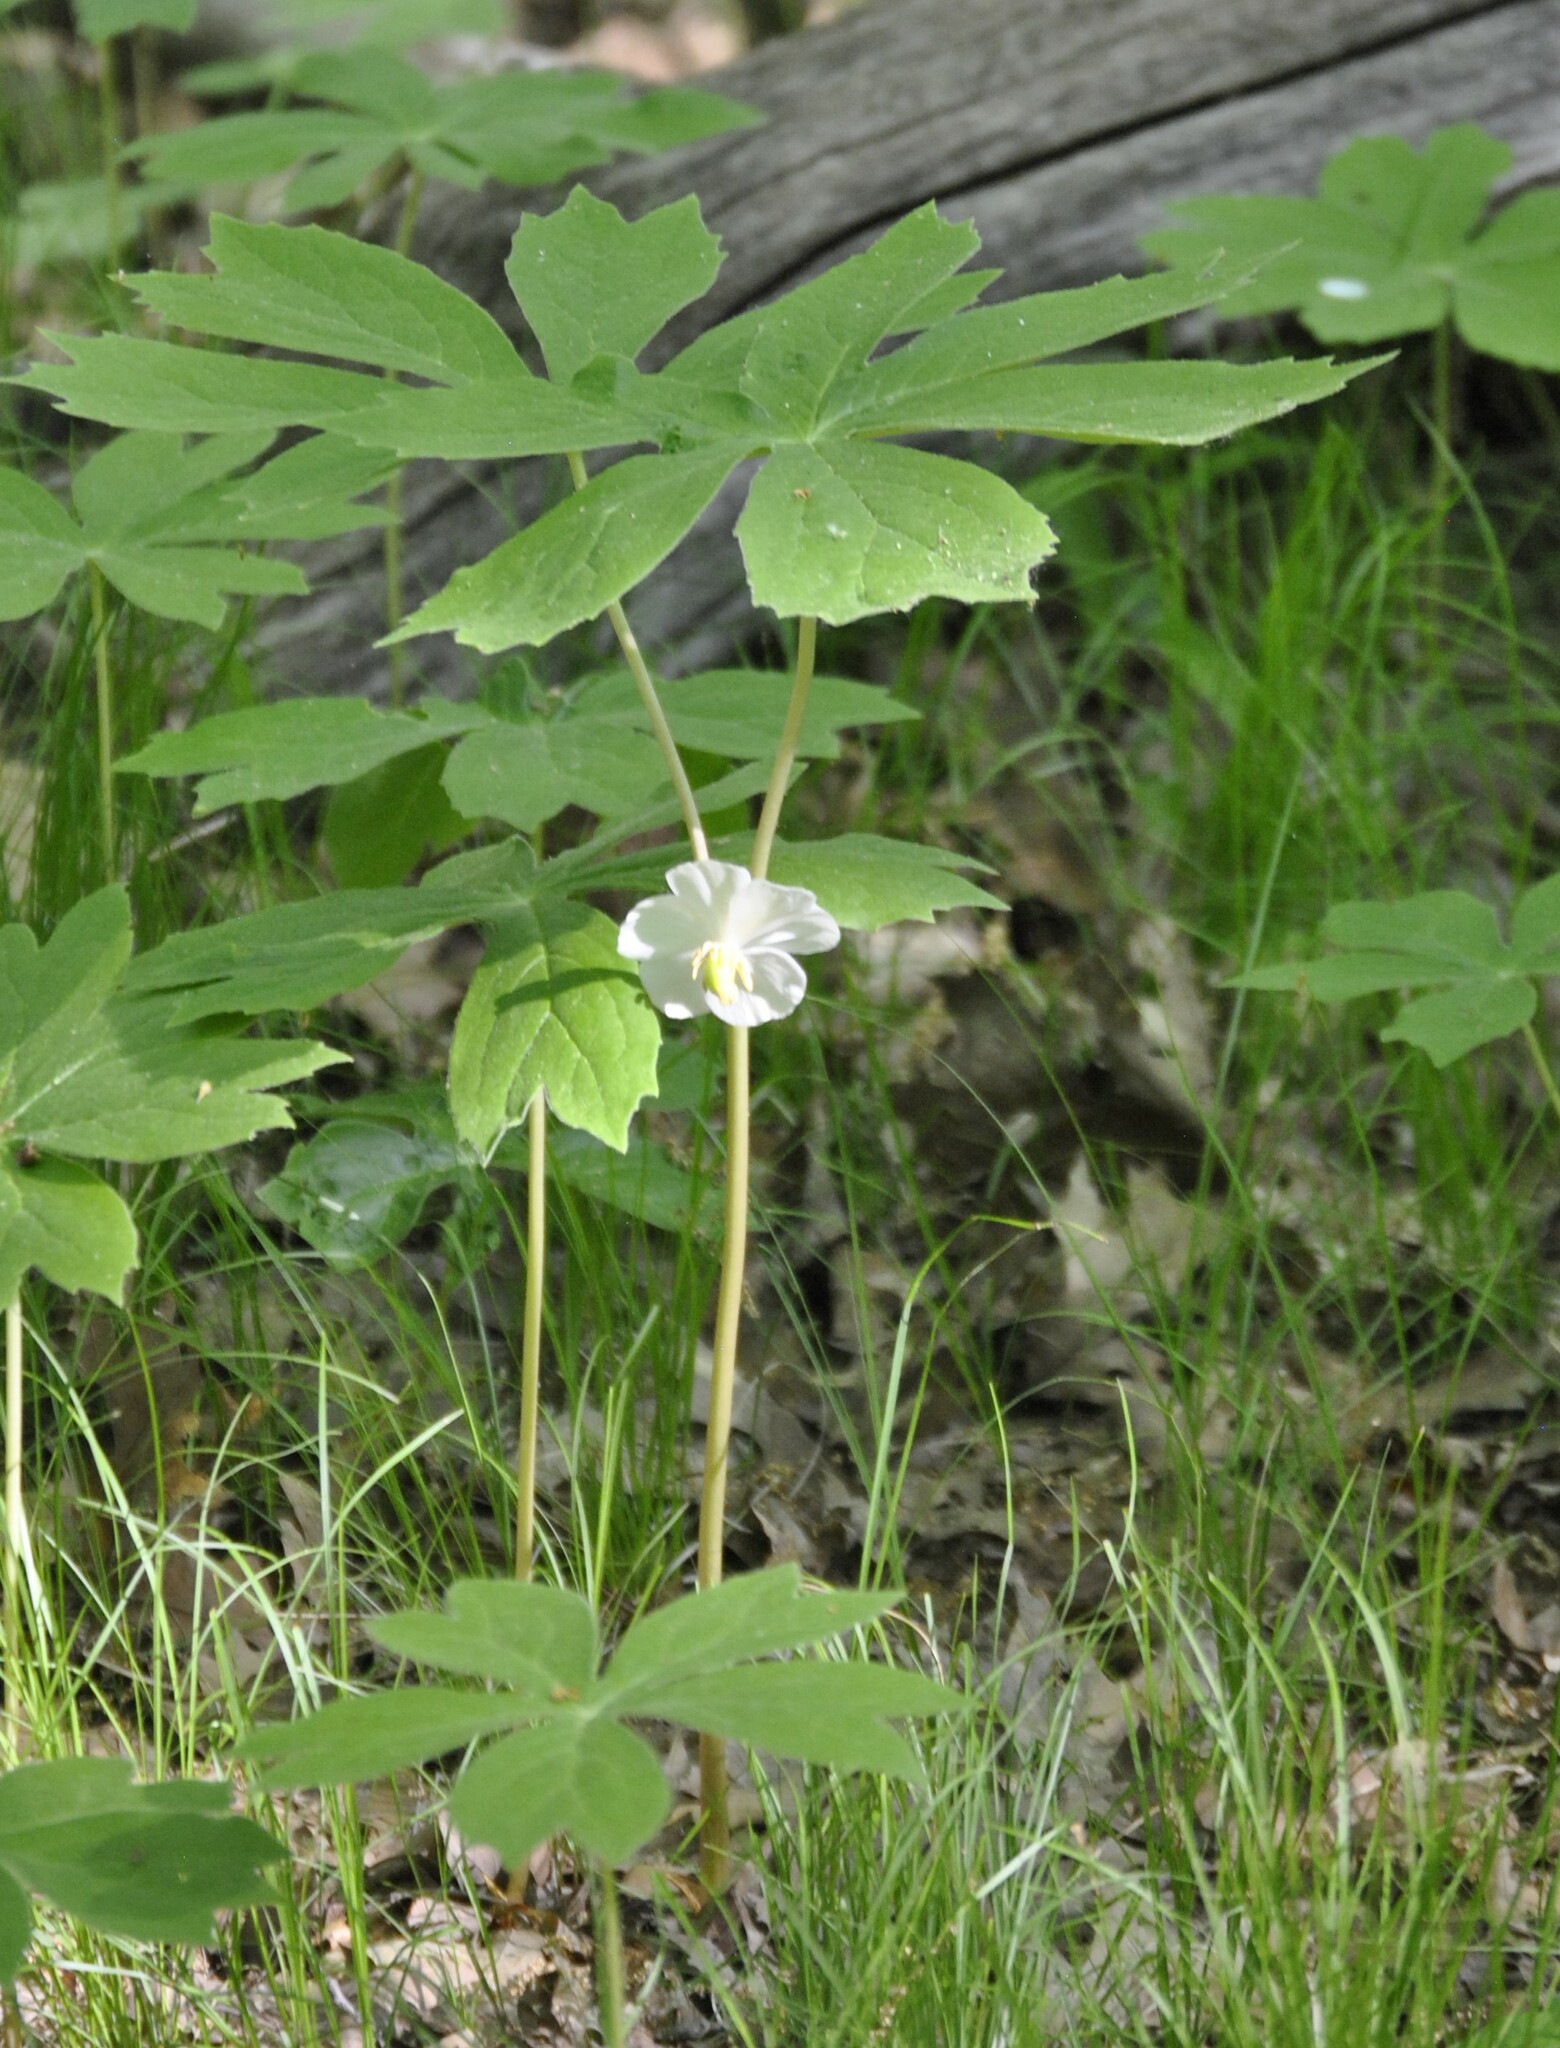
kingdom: Plantae
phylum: Tracheophyta
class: Magnoliopsida
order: Ranunculales
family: Berberidaceae
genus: Podophyllum
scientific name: Podophyllum peltatum
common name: Wild mandrake
